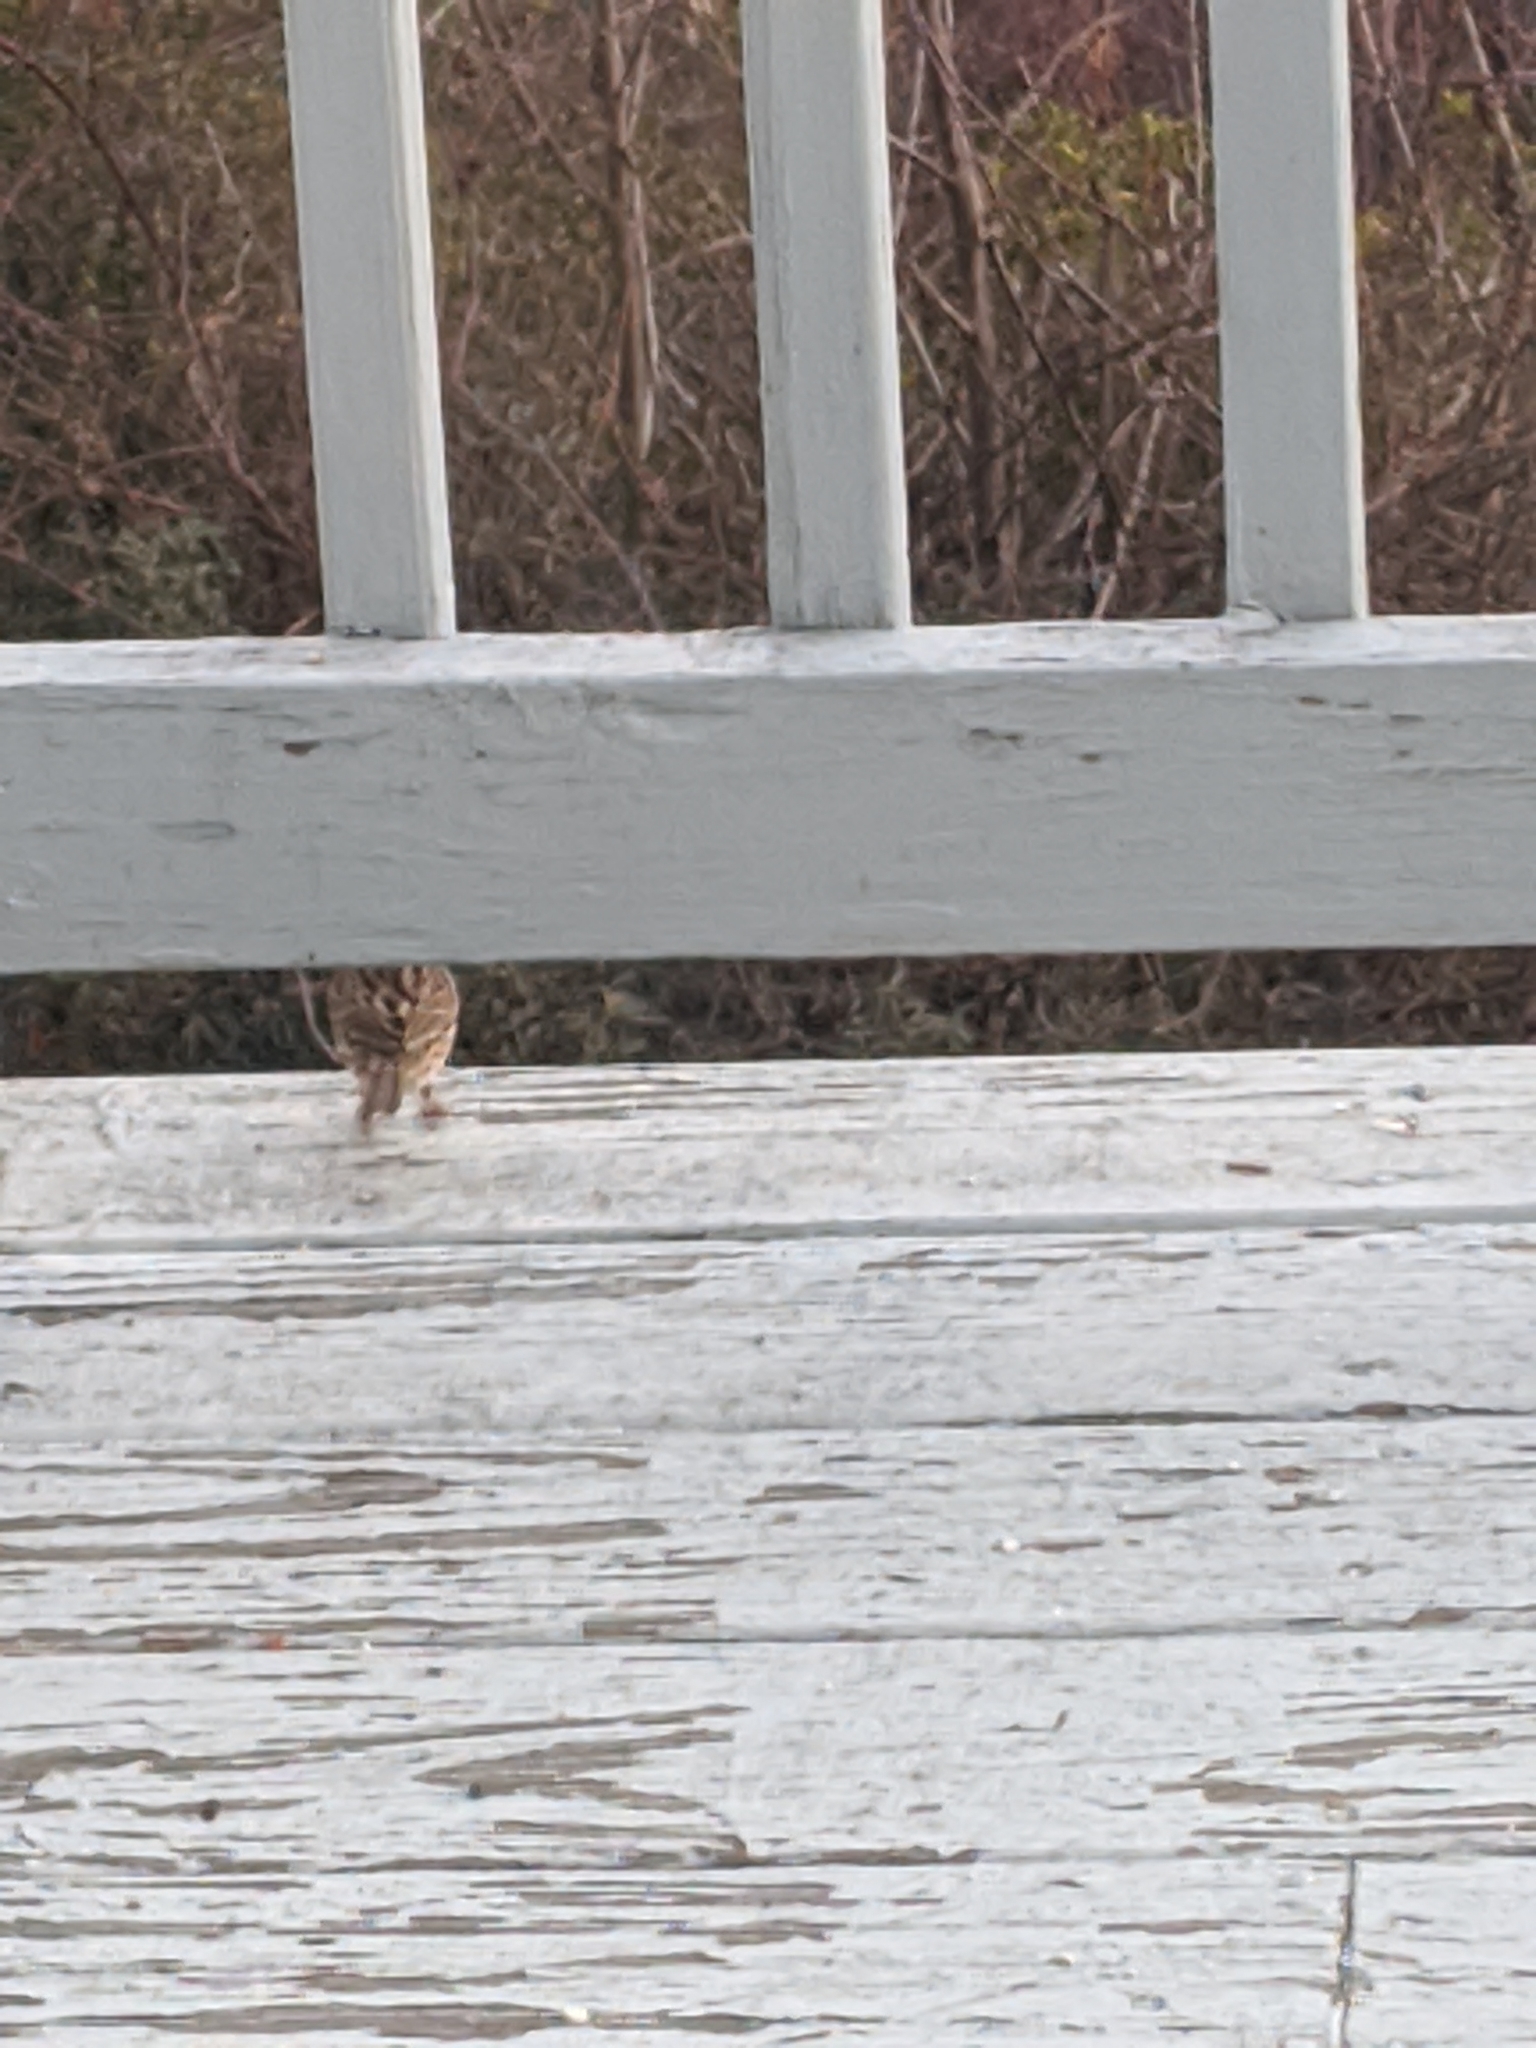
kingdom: Animalia
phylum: Chordata
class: Aves
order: Passeriformes
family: Passerellidae
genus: Melospiza
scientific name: Melospiza melodia
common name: Song sparrow
